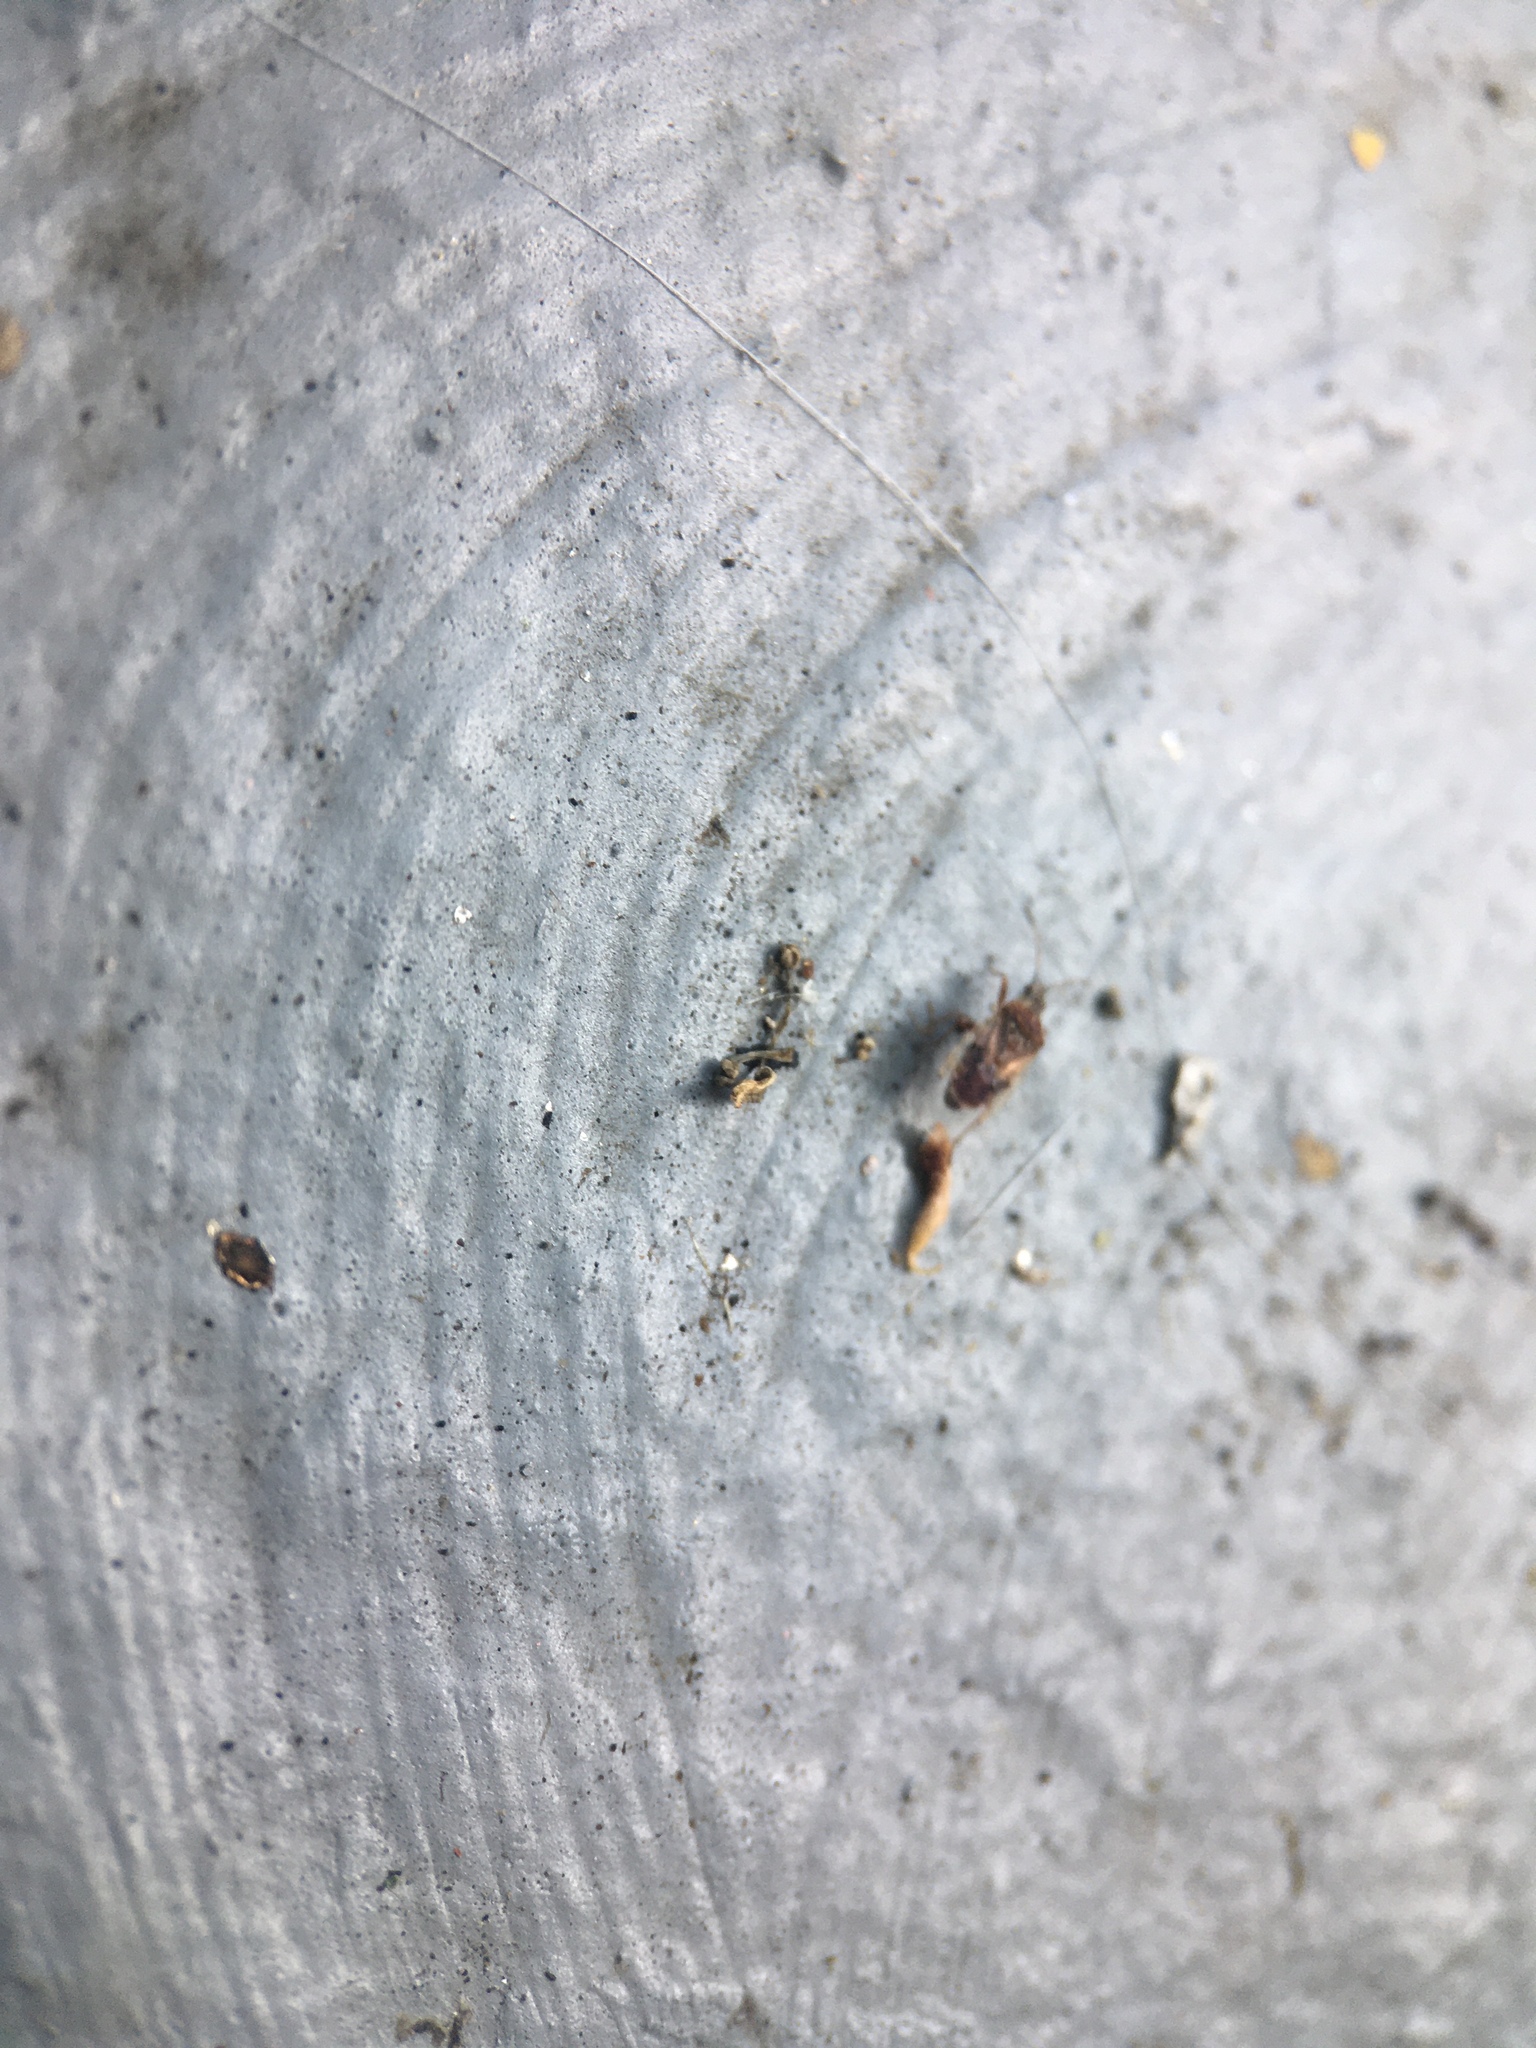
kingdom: Animalia
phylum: Arthropoda
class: Insecta
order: Hemiptera
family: Lygaeidae
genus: Kleidocerys
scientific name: Kleidocerys resedae
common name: Birch catkin bug
